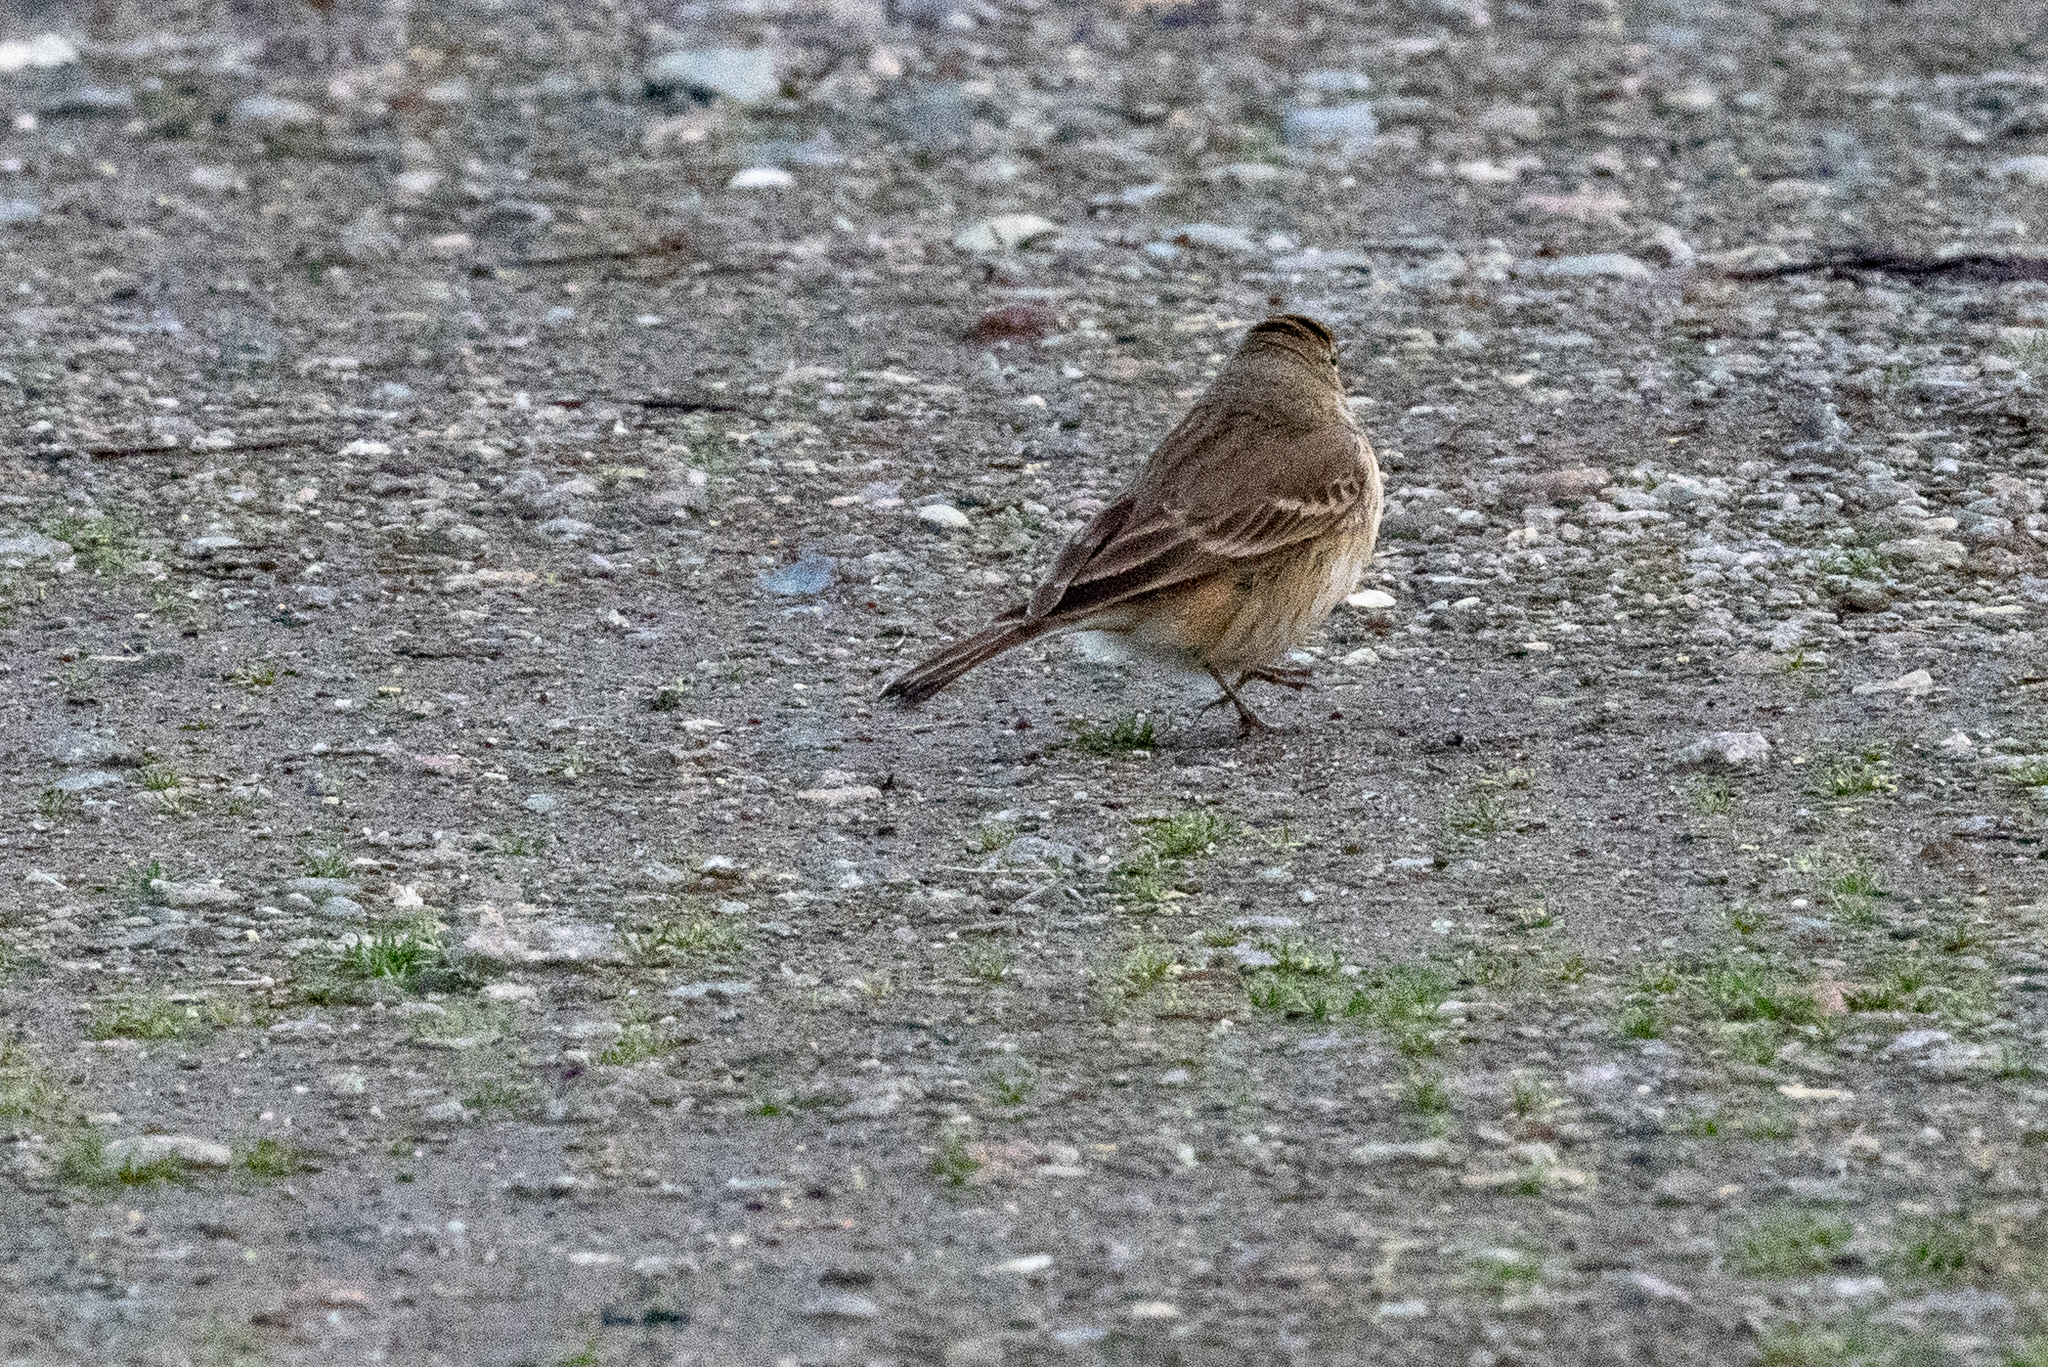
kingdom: Animalia
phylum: Chordata
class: Aves
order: Passeriformes
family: Motacillidae
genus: Anthus
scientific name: Anthus rubescens
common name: Buff-bellied pipit
